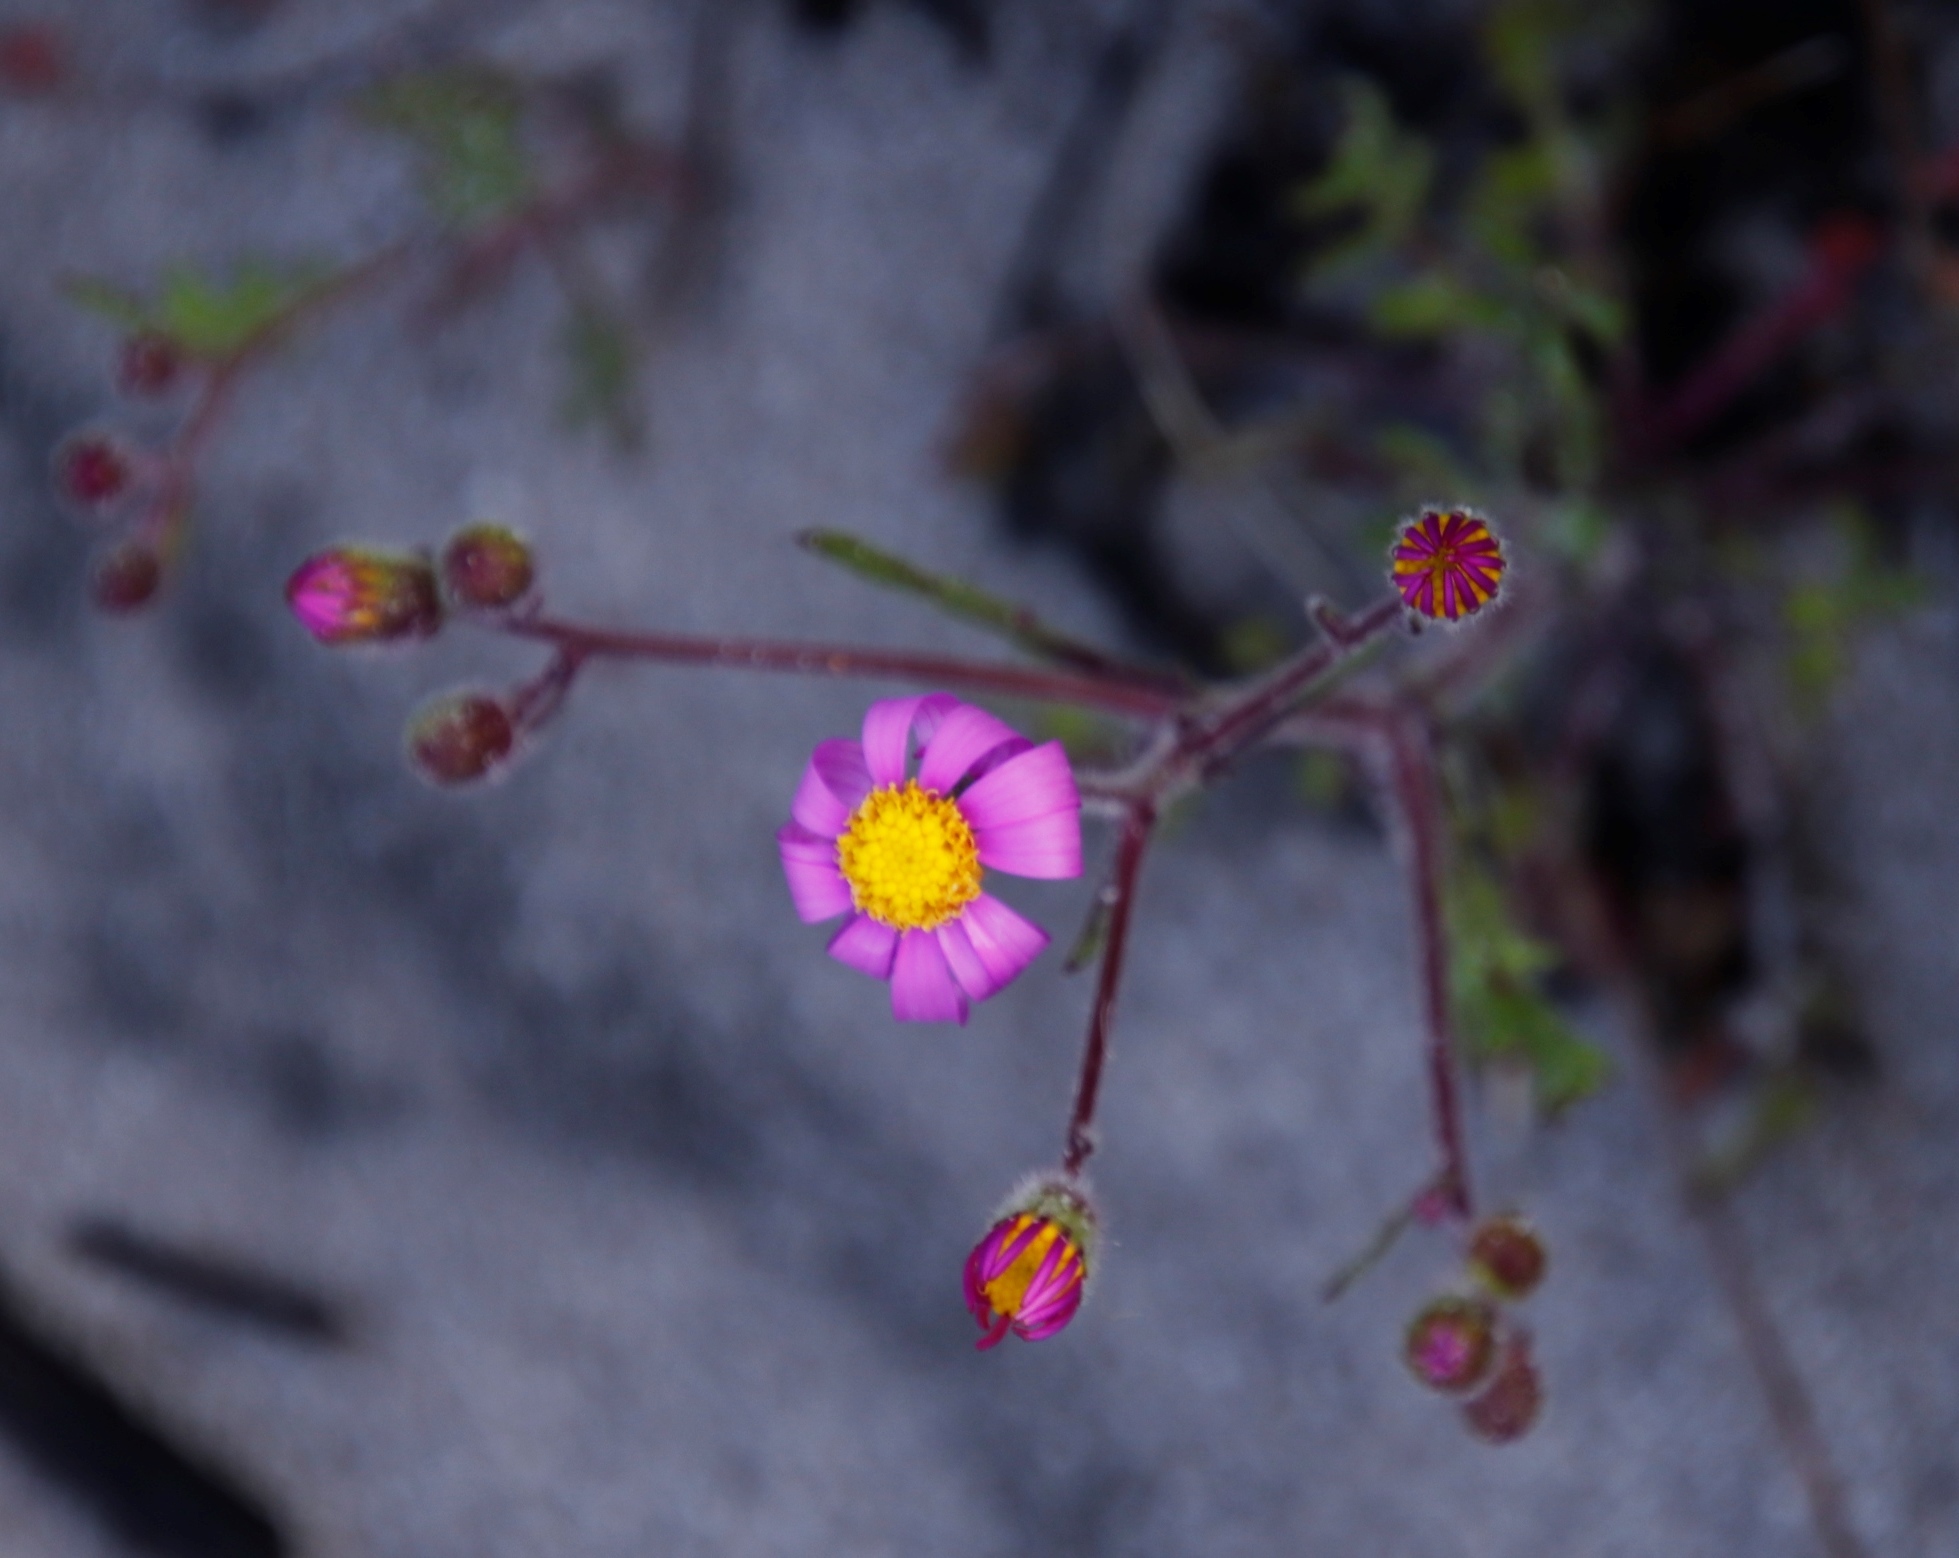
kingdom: Plantae
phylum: Tracheophyta
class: Magnoliopsida
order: Asterales
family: Asteraceae
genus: Senecio
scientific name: Senecio arenarius
